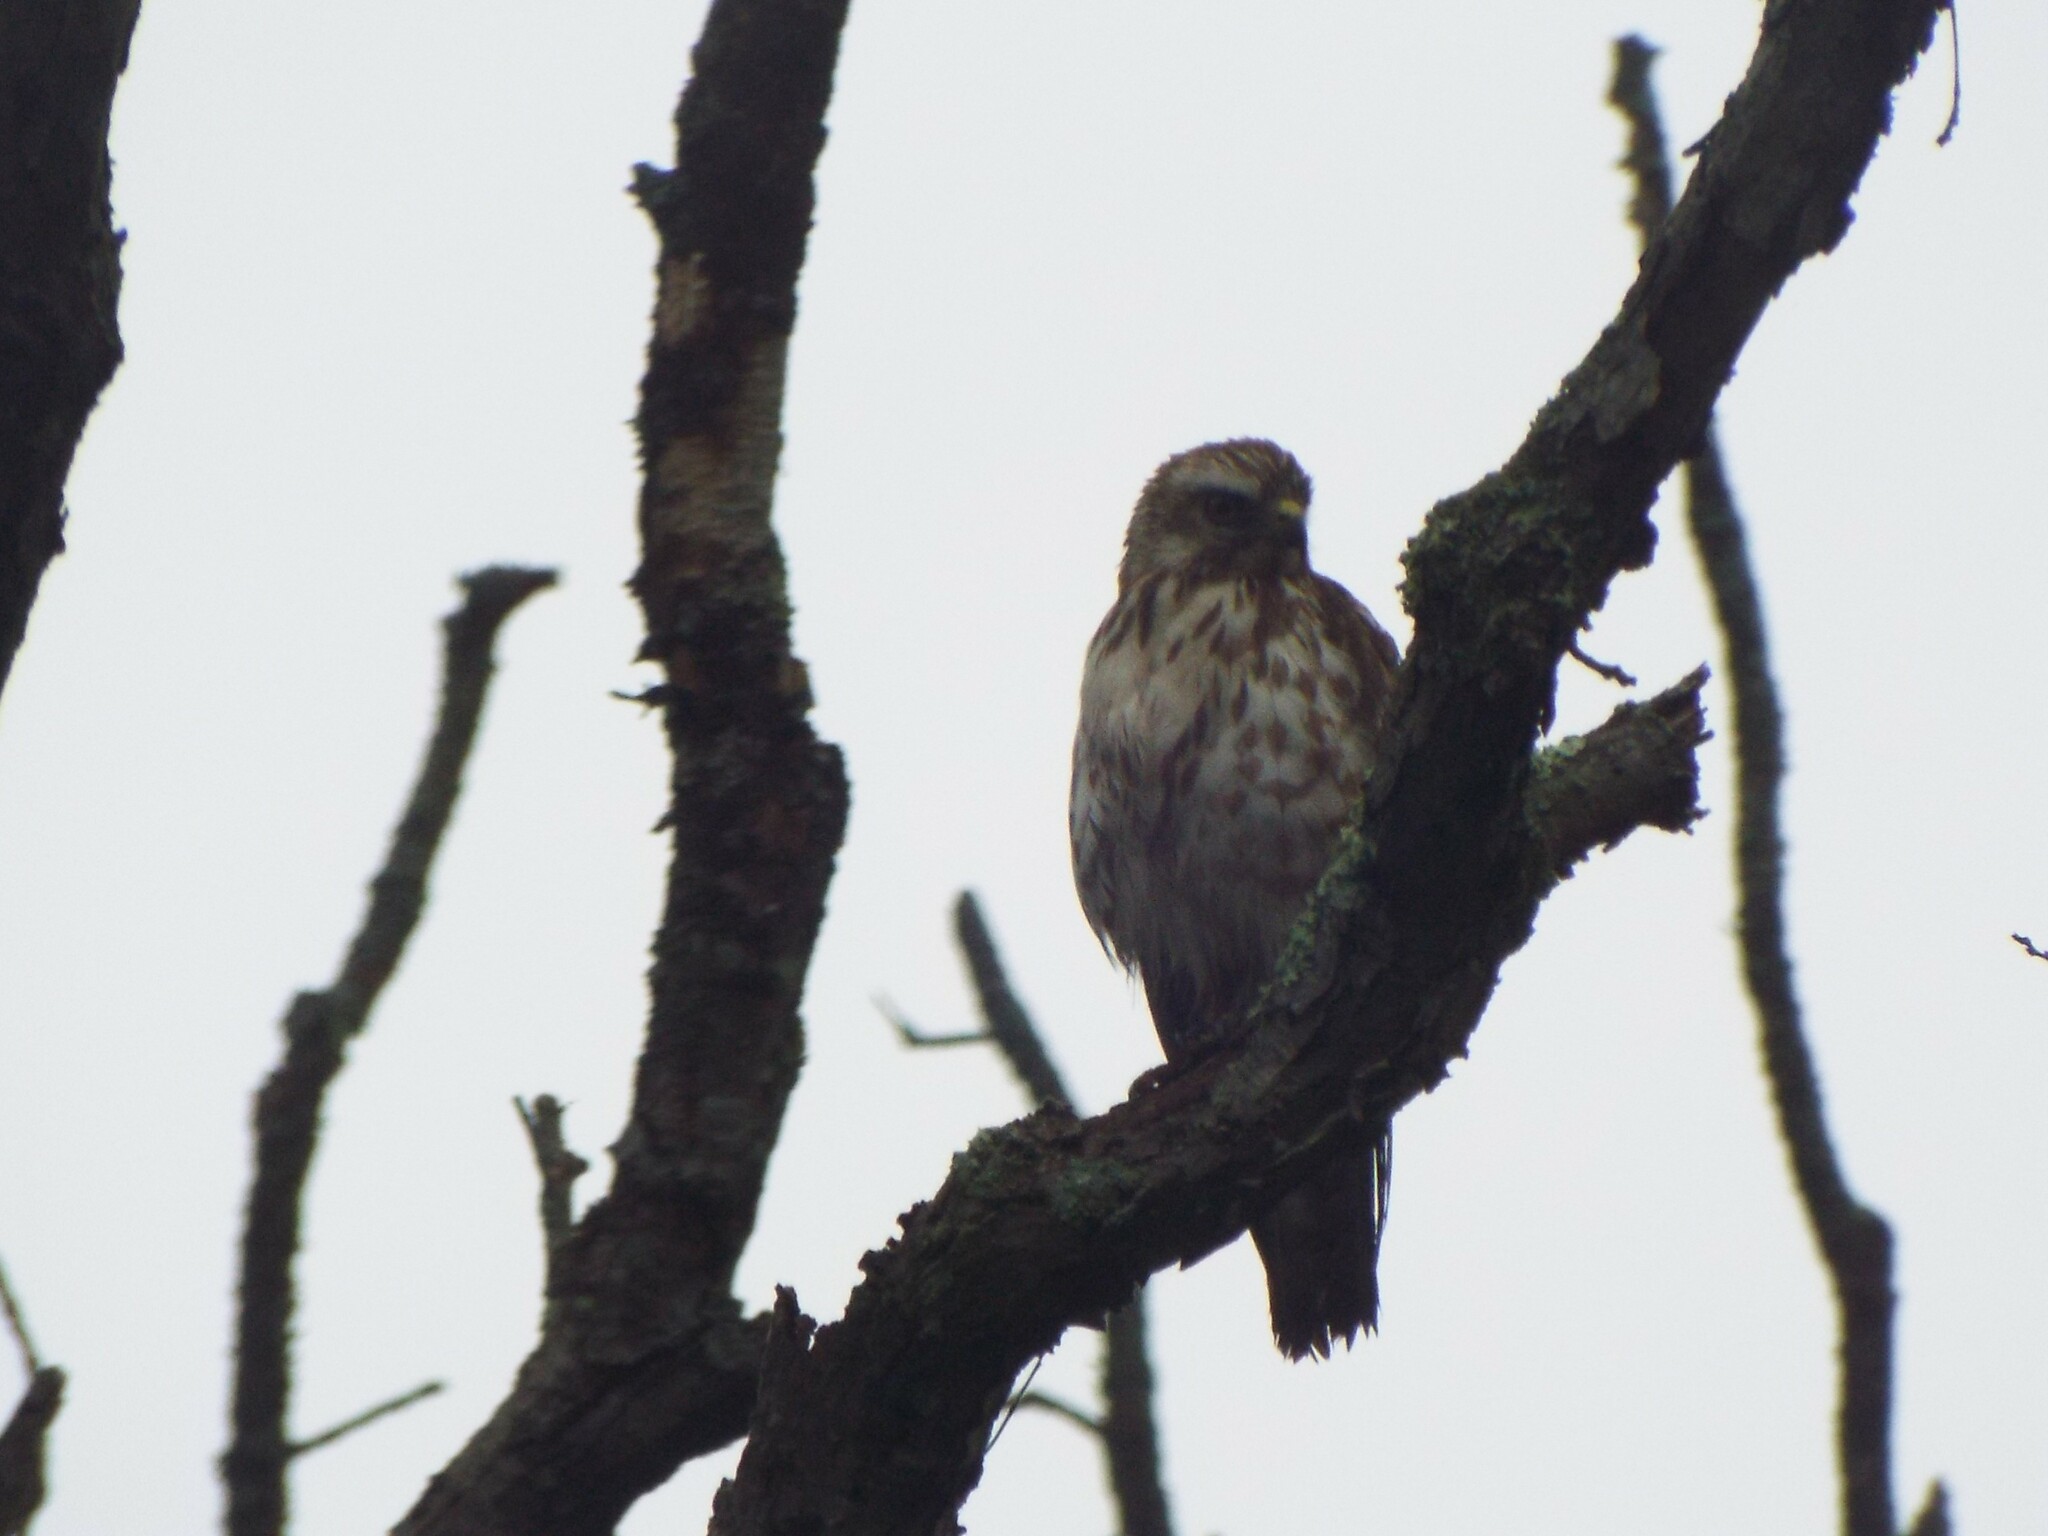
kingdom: Animalia
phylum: Chordata
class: Aves
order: Accipitriformes
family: Accipitridae
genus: Buteo
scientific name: Buteo platypterus
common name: Broad-winged hawk
